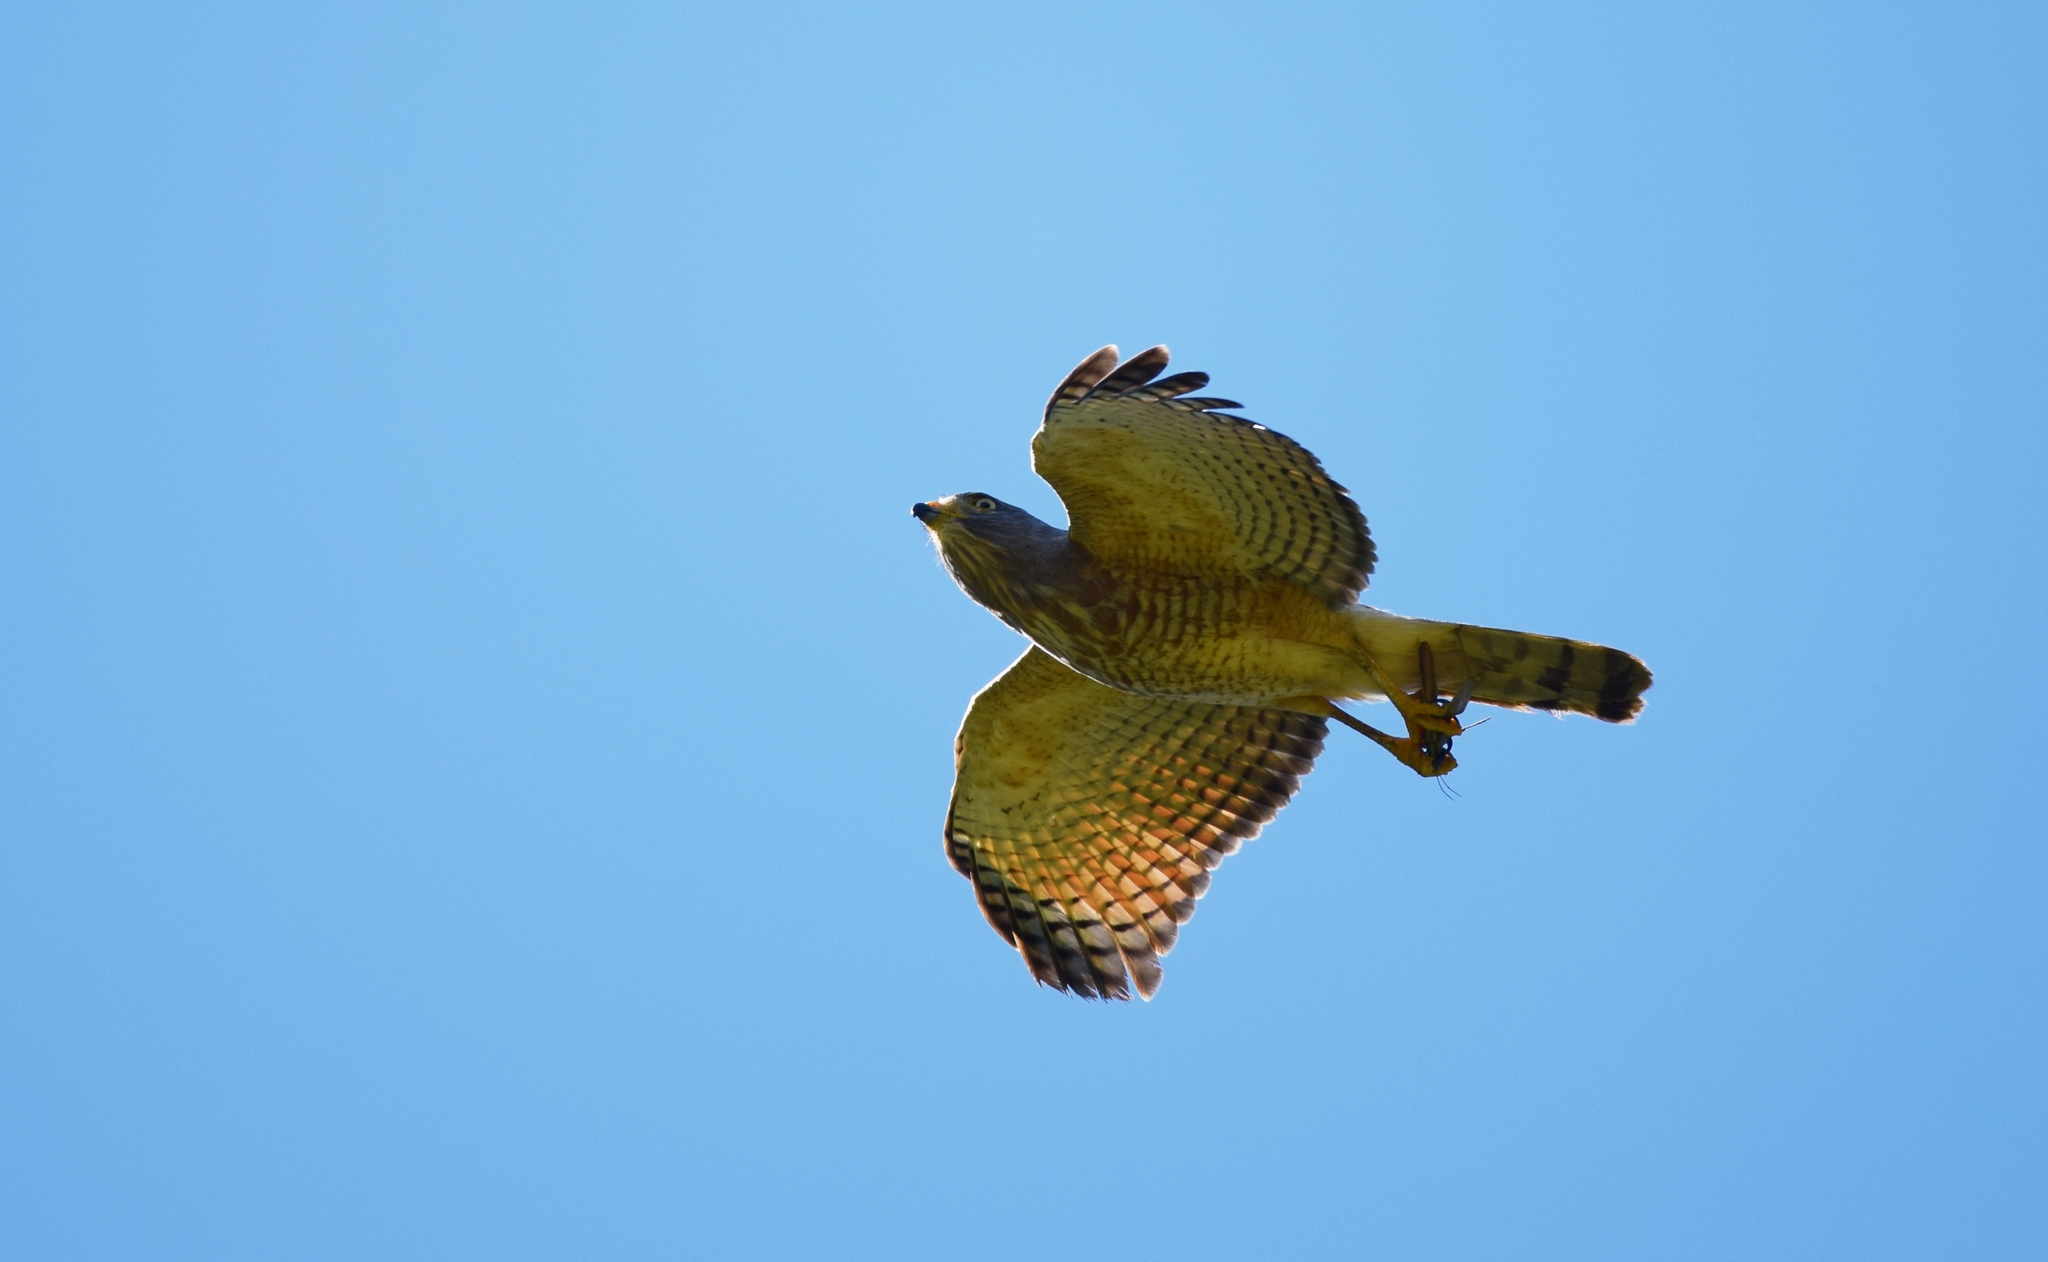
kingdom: Animalia
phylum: Chordata
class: Aves
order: Accipitriformes
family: Accipitridae
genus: Rupornis
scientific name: Rupornis magnirostris
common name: Roadside hawk
